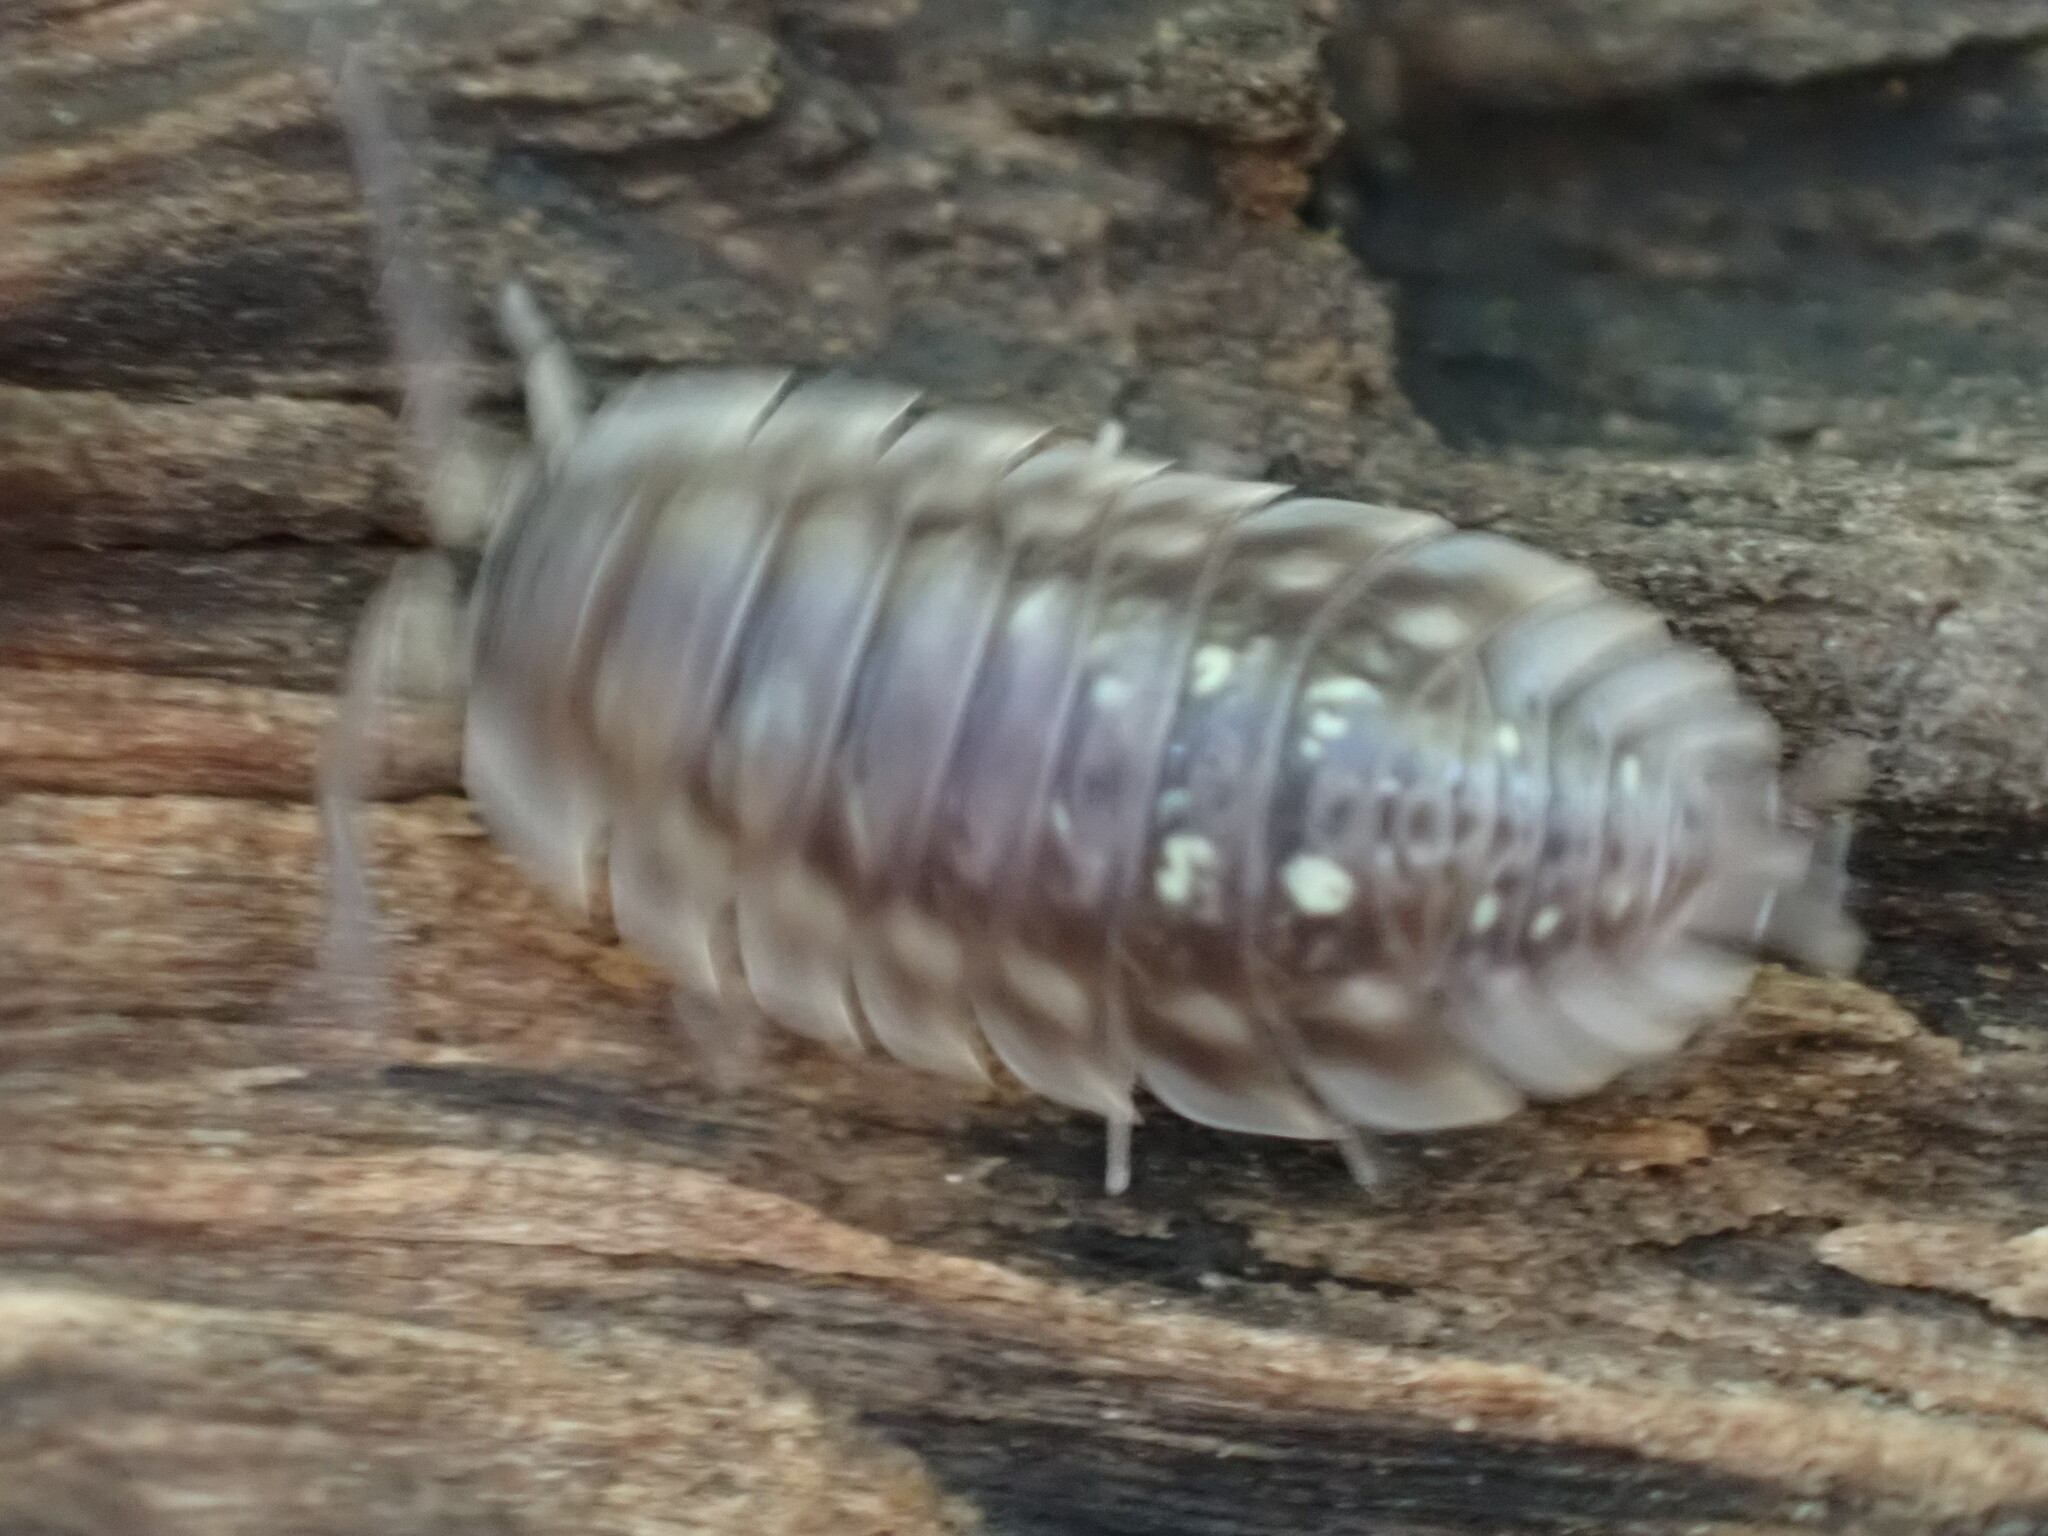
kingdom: Animalia
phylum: Arthropoda
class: Malacostraca
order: Isopoda
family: Oniscidae
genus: Oniscus
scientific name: Oniscus asellus
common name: Common shiny woodlouse
